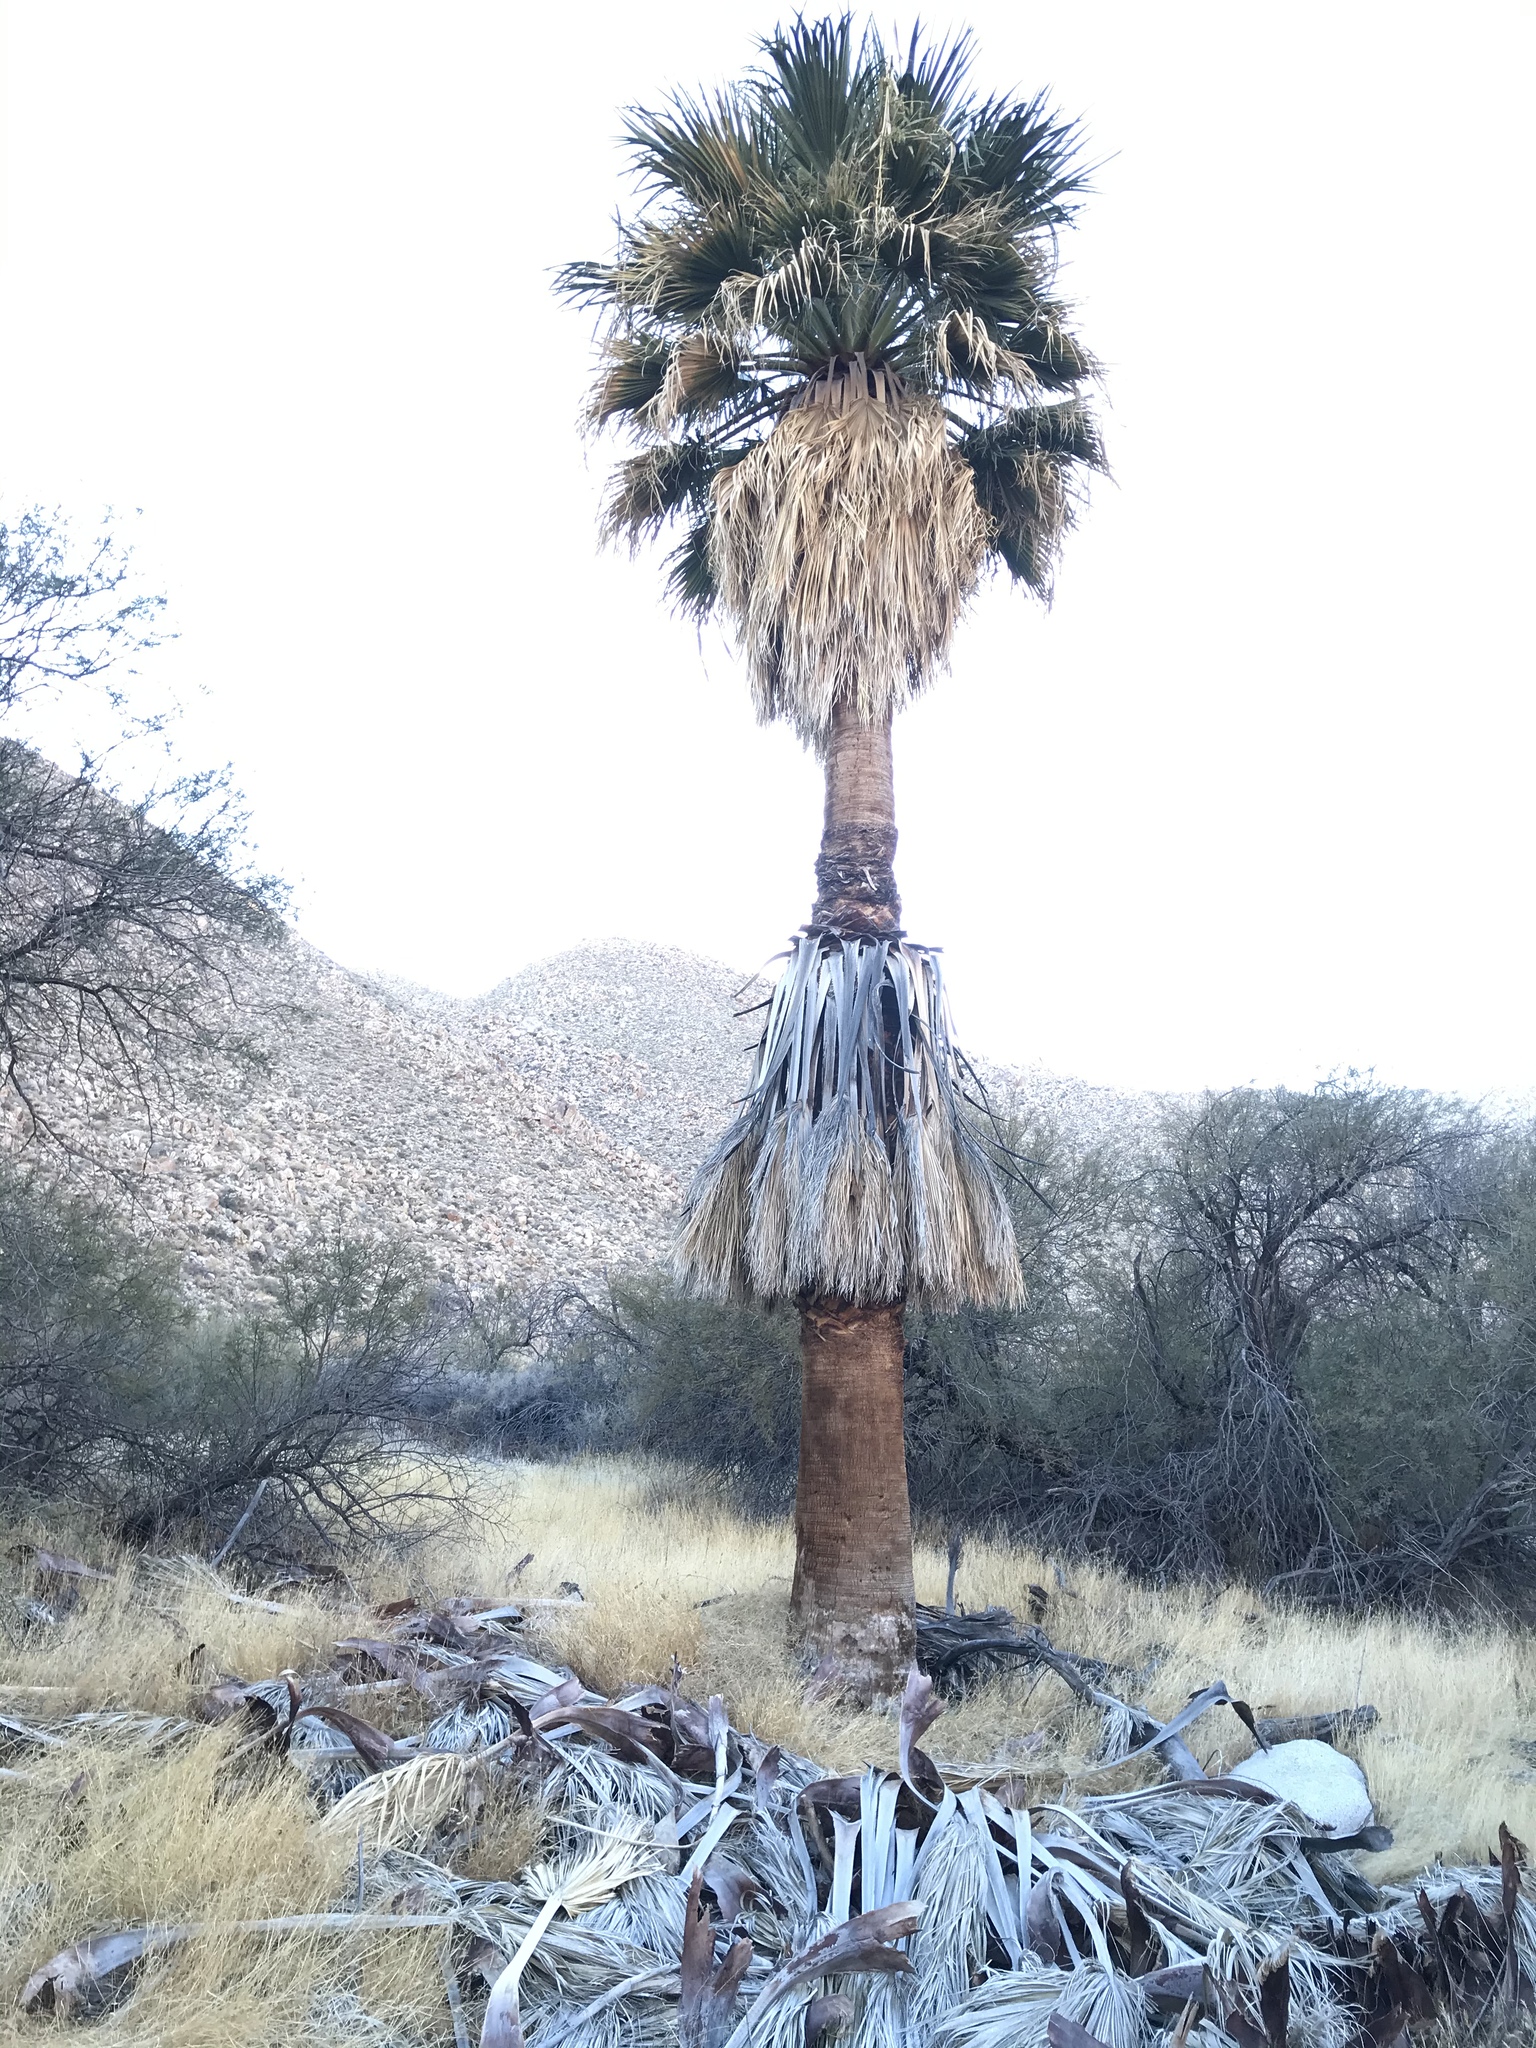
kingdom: Plantae
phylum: Tracheophyta
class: Liliopsida
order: Arecales
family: Arecaceae
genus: Washingtonia
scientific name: Washingtonia filifera
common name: California fan palm
